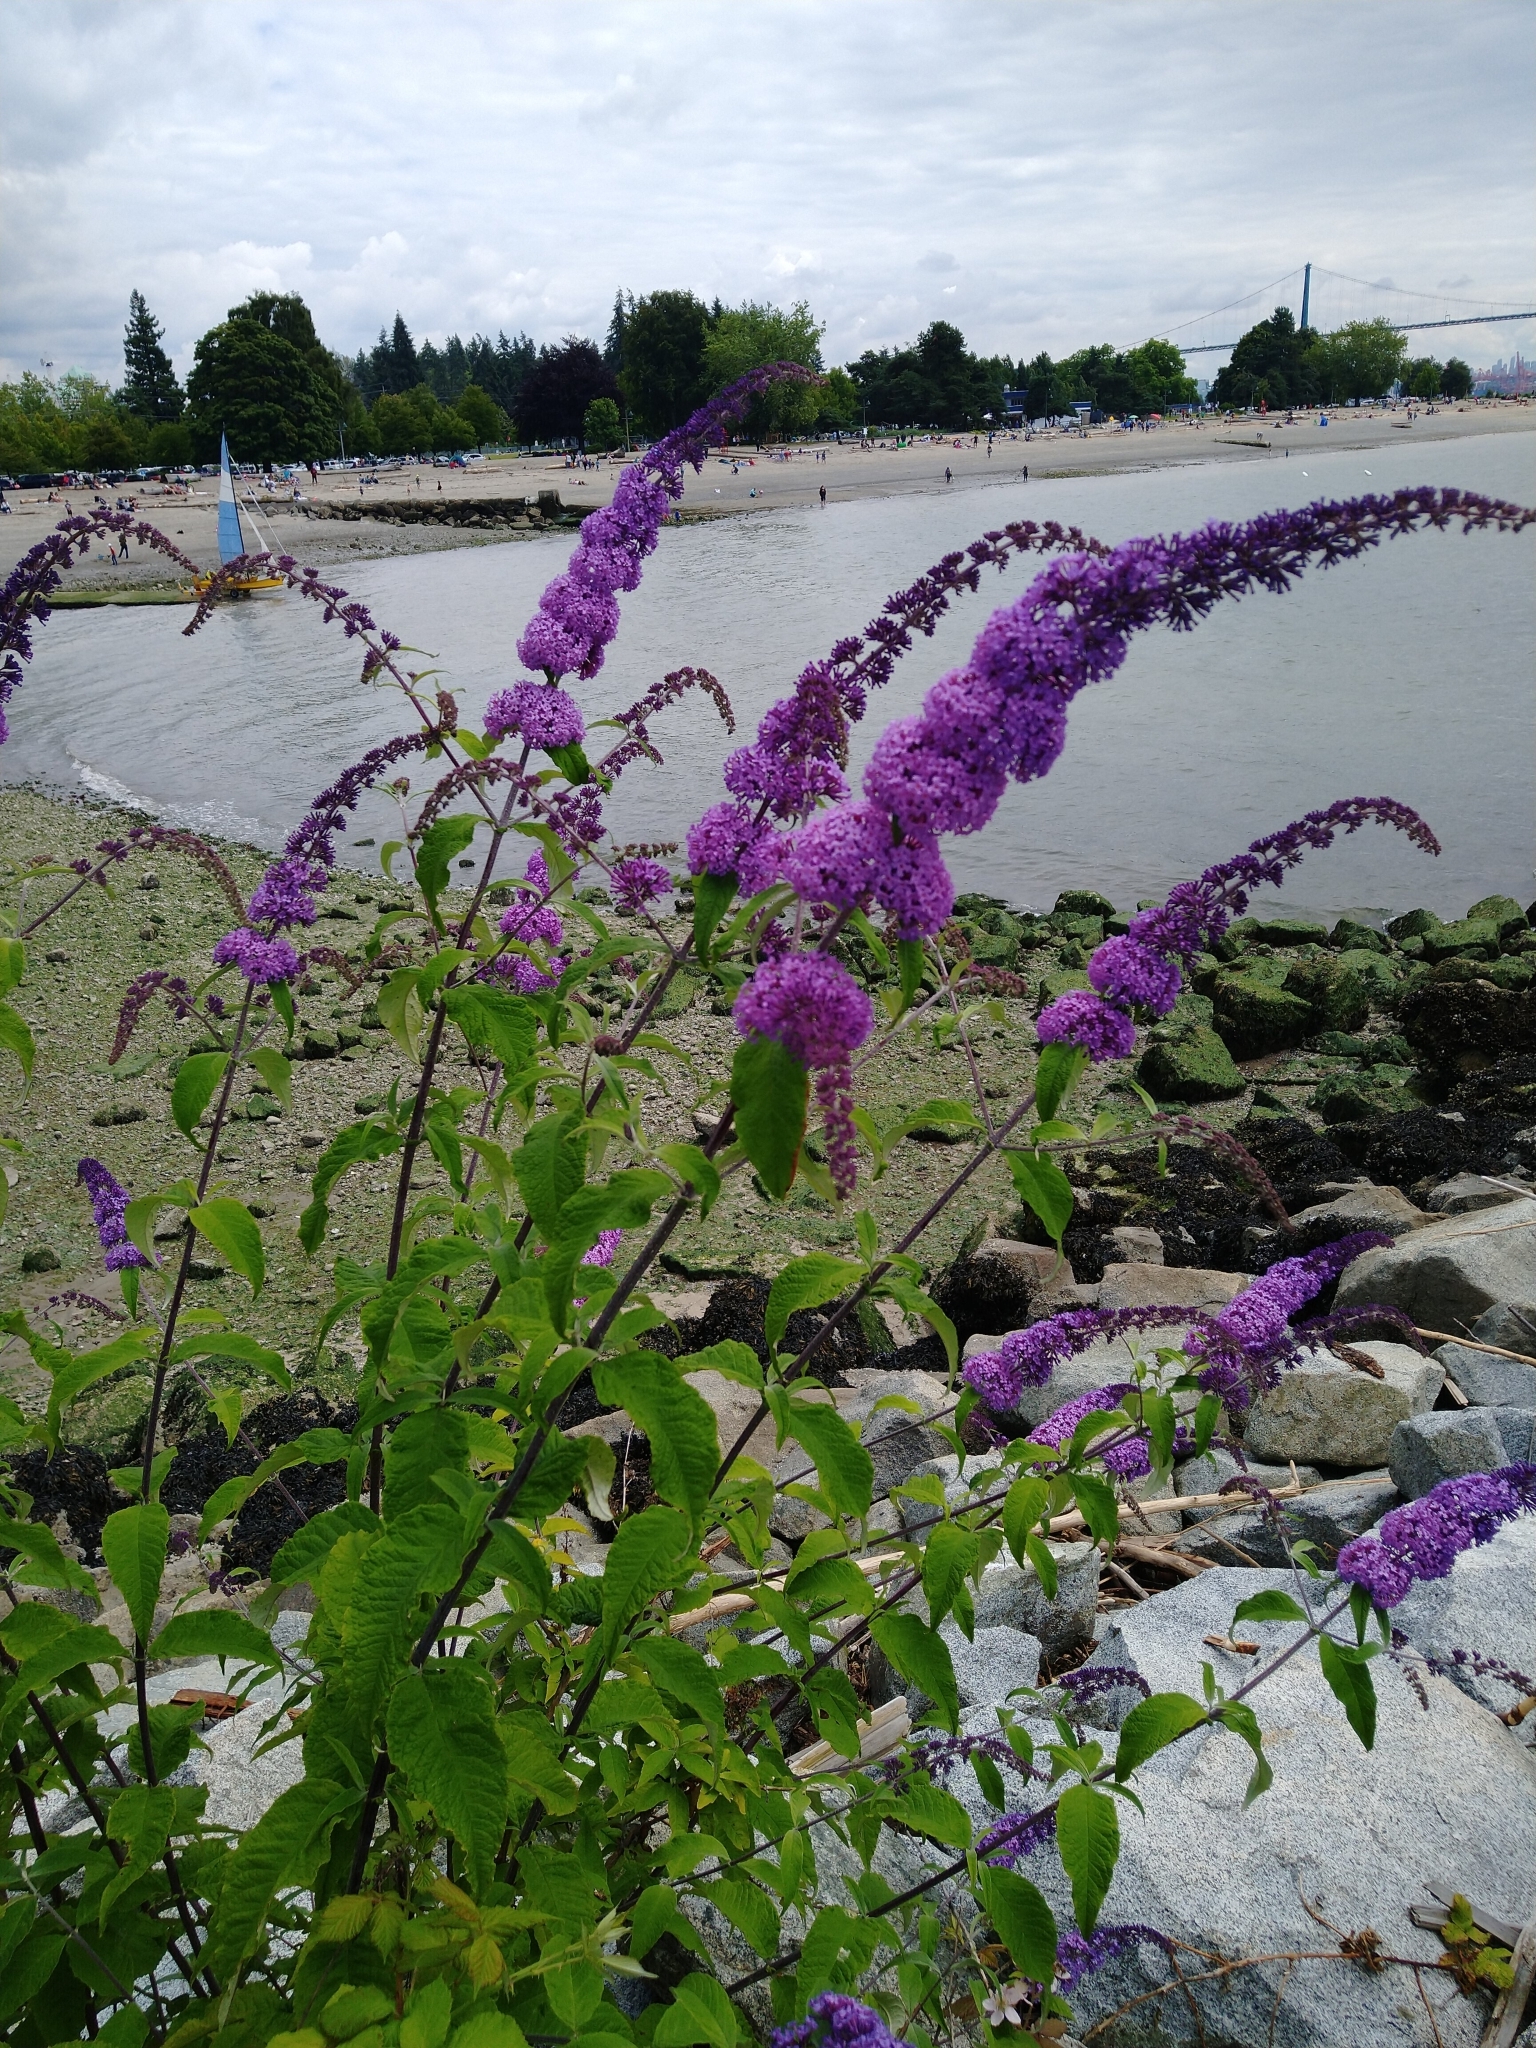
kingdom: Plantae
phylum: Tracheophyta
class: Magnoliopsida
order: Lamiales
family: Scrophulariaceae
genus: Buddleja
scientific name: Buddleja davidii
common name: Butterfly-bush
